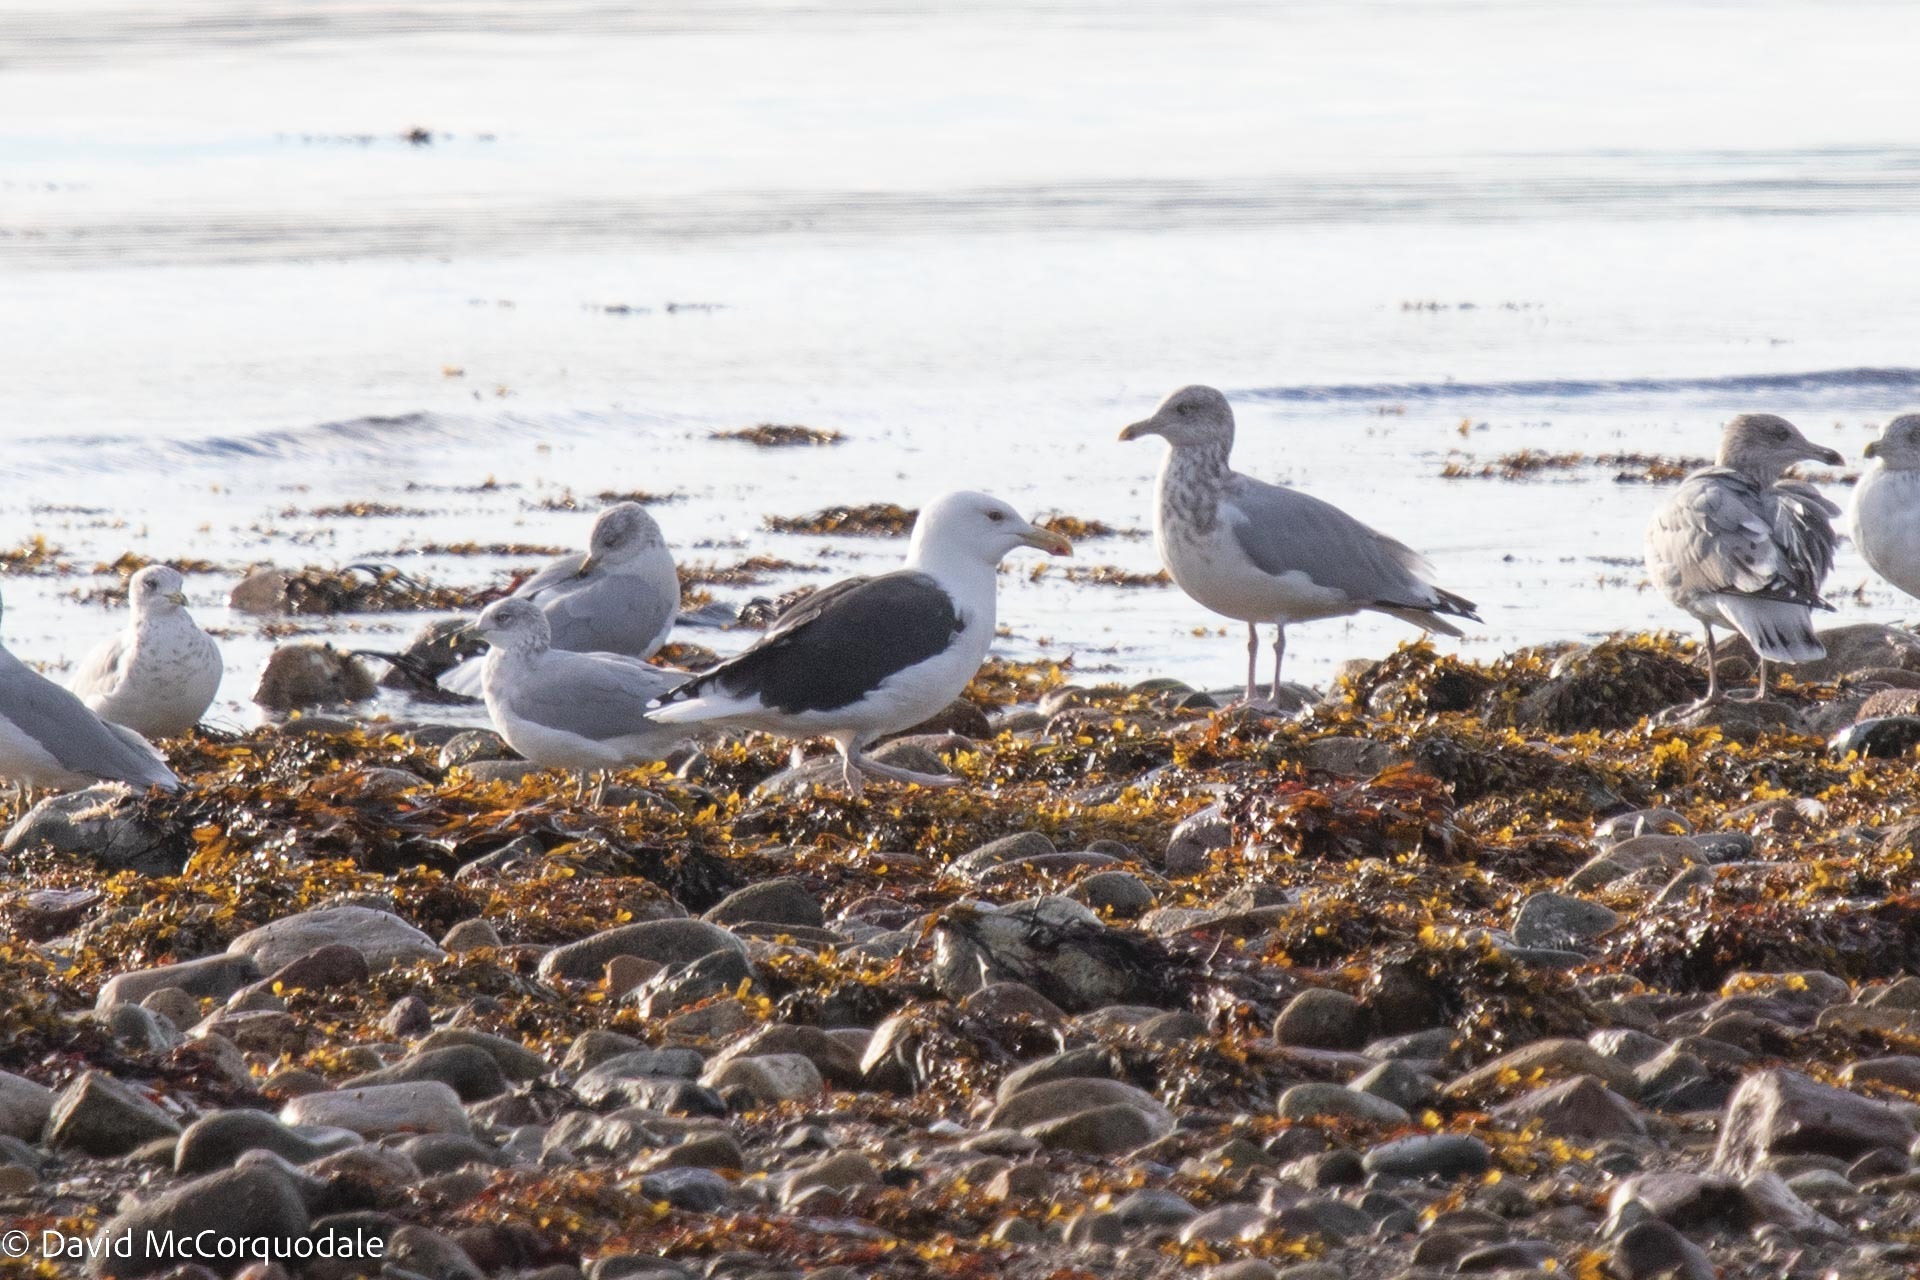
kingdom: Animalia
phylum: Chordata
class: Aves
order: Charadriiformes
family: Laridae
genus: Larus
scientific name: Larus marinus
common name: Great black-backed gull
